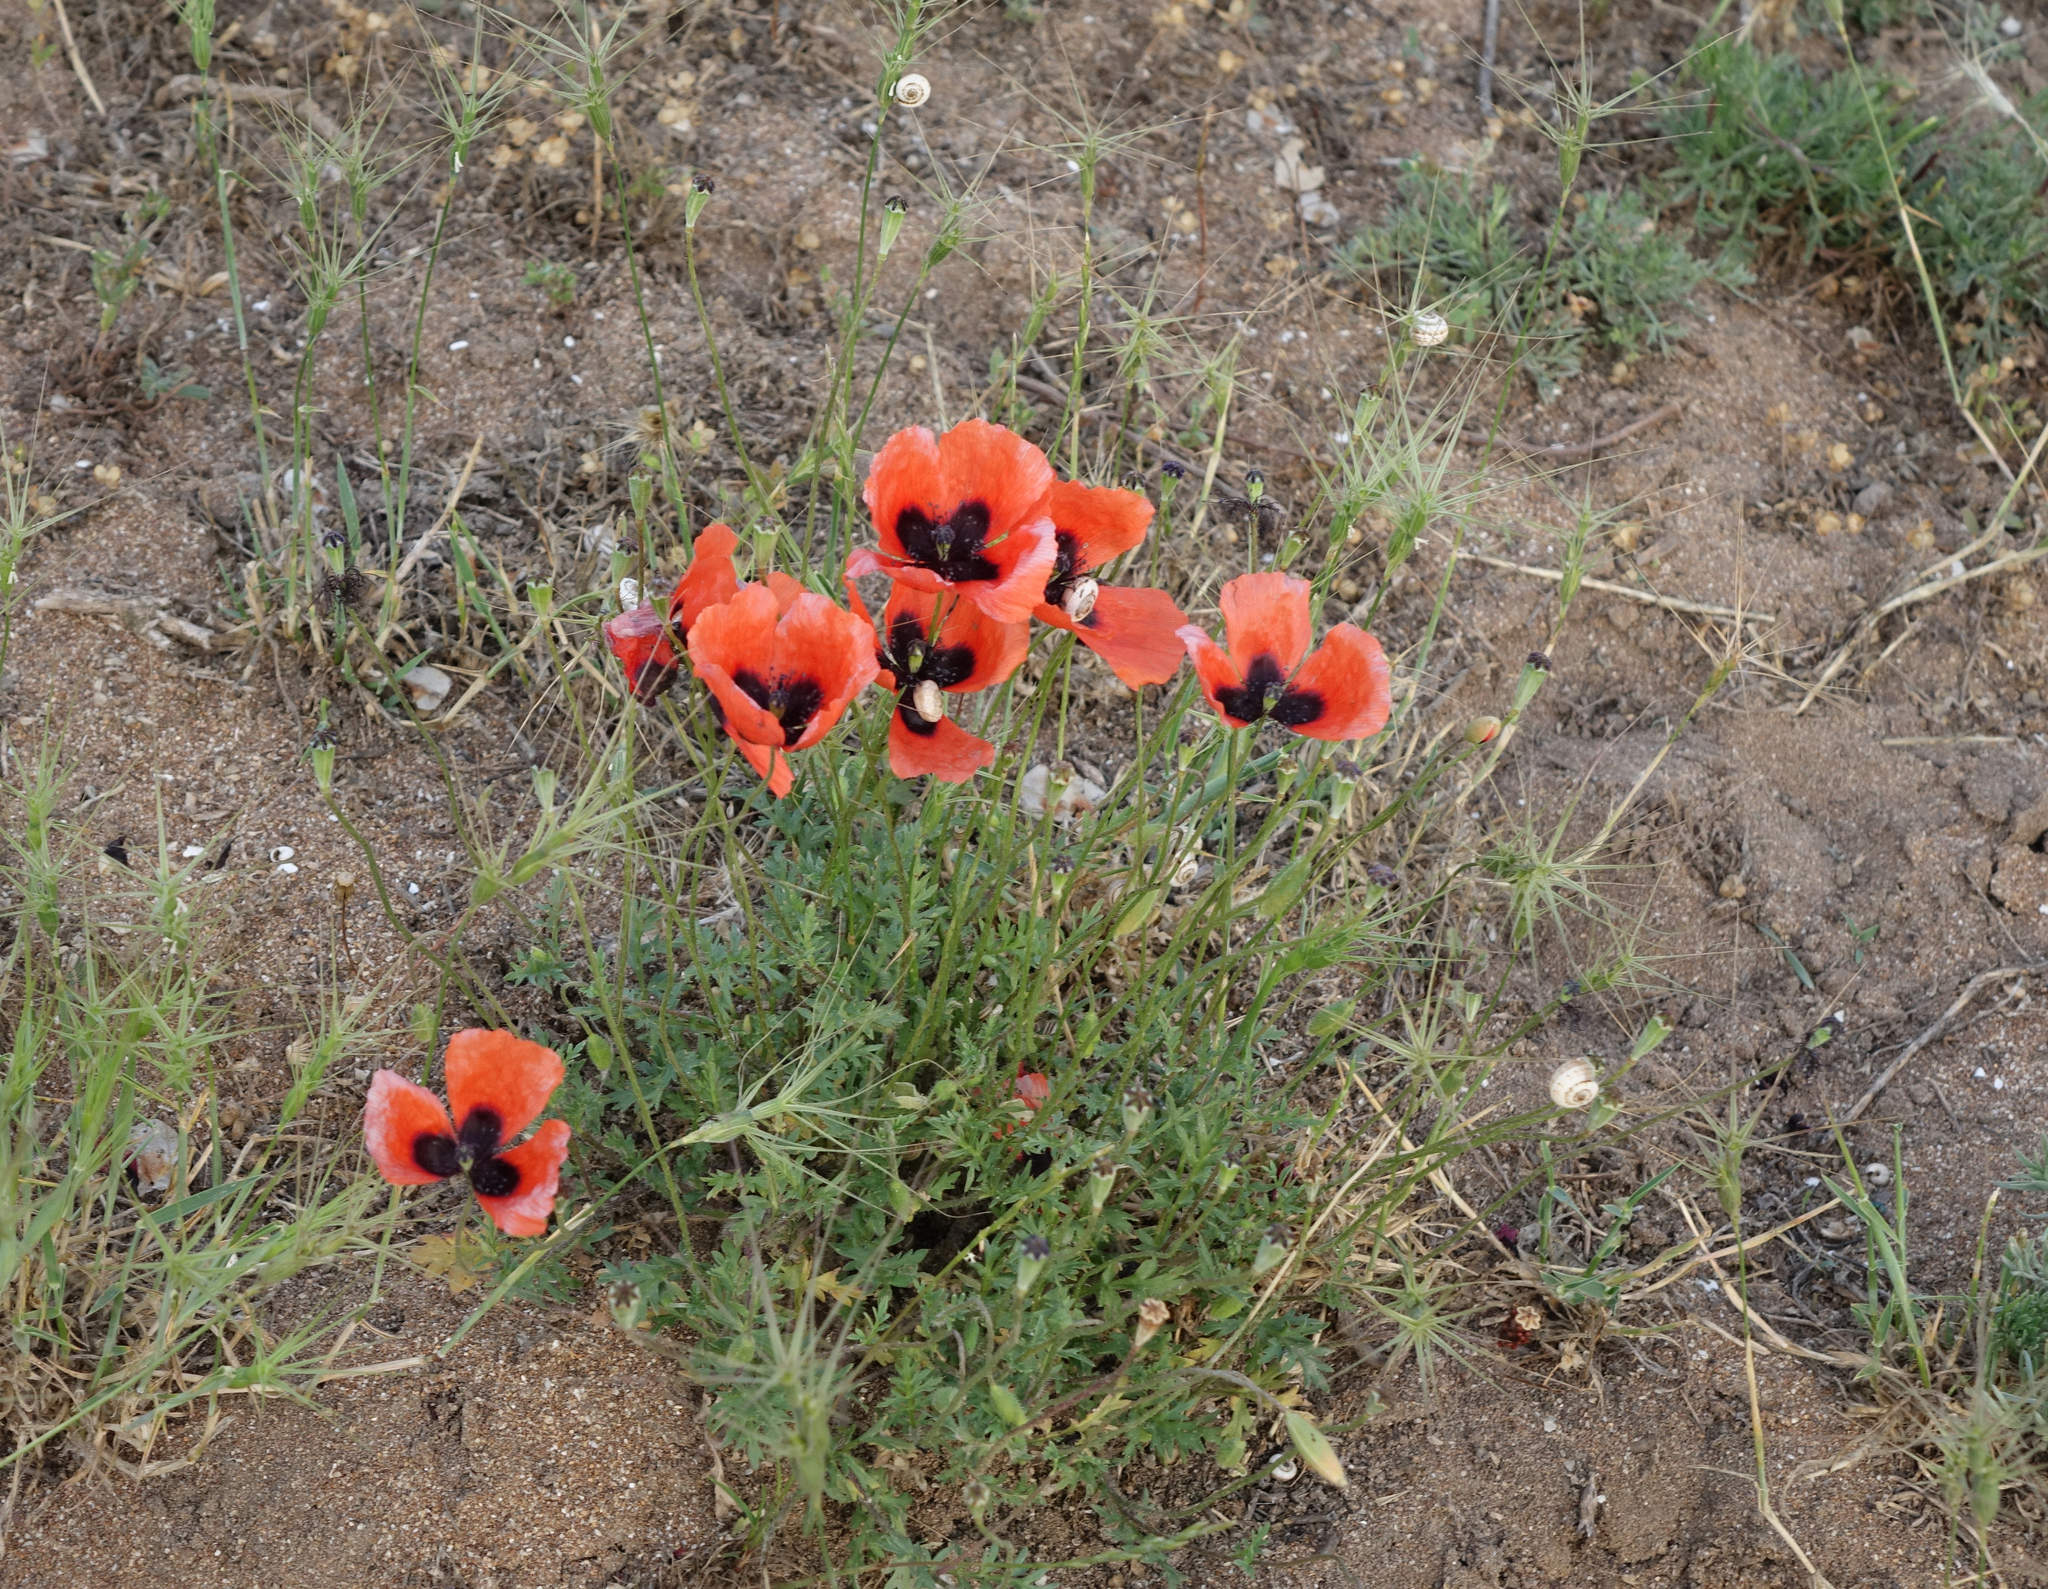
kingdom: Plantae
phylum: Tracheophyta
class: Magnoliopsida
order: Ranunculales
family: Papaveraceae
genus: Papaver
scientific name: Papaver arenarium
